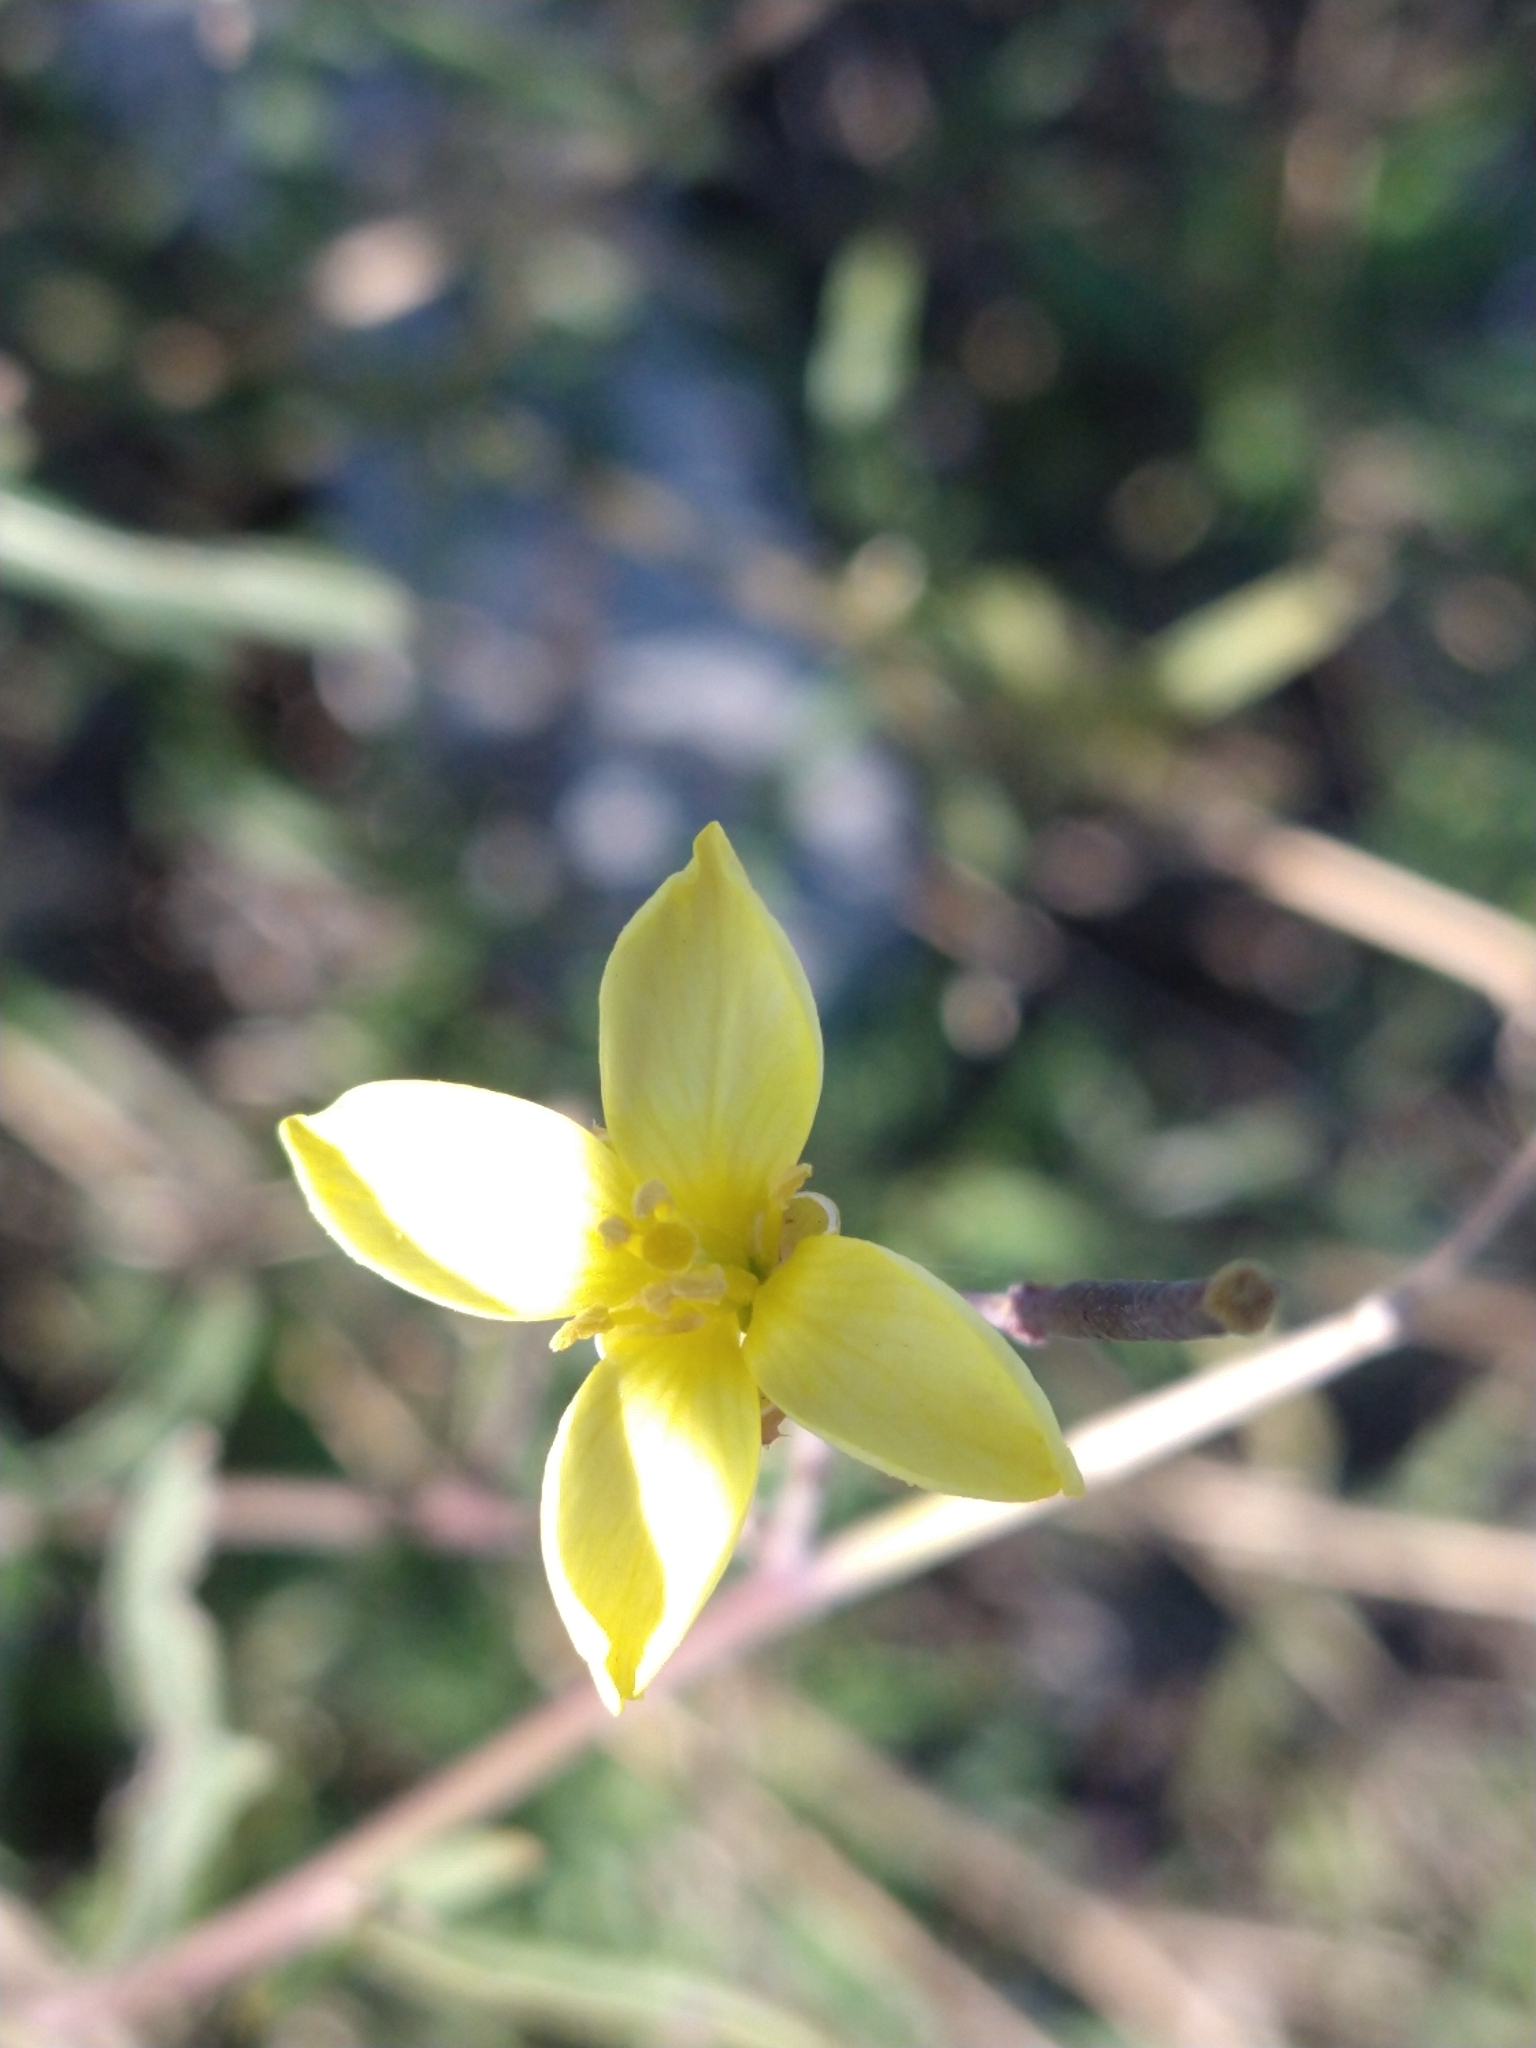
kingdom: Plantae
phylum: Tracheophyta
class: Magnoliopsida
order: Brassicales
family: Brassicaceae
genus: Diplotaxis
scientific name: Diplotaxis tenuifolia
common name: Perennial wall-rocket
